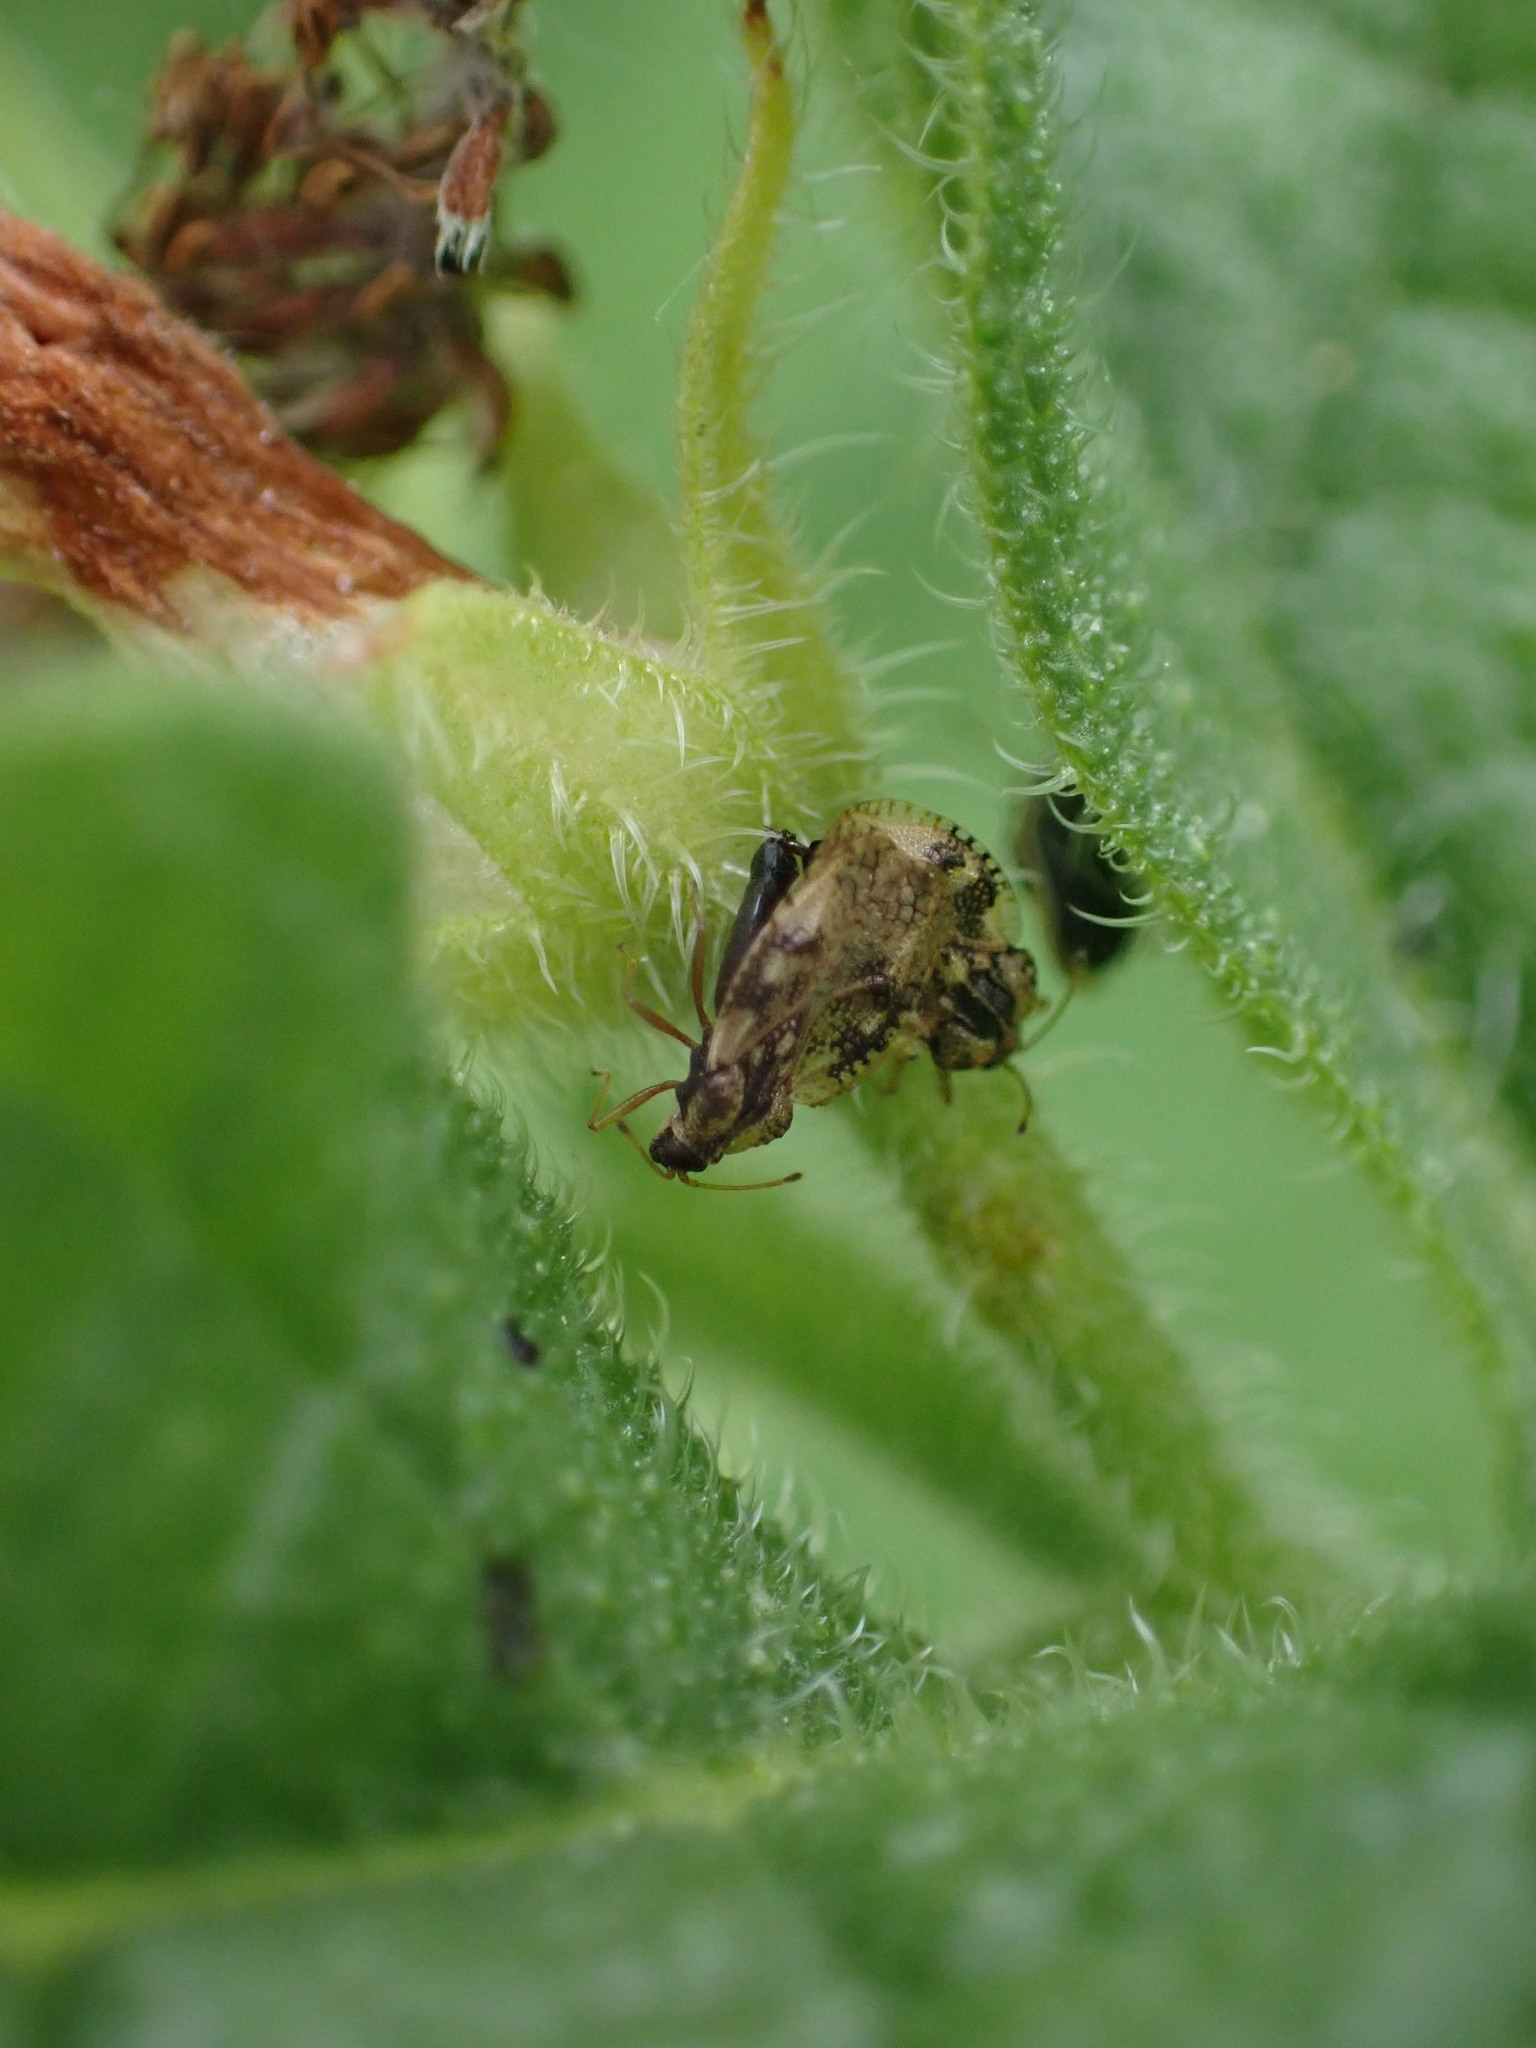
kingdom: Animalia
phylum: Arthropoda
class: Insecta
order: Hemiptera
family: Tingidae
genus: Dictyla
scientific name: Dictyla humuli
